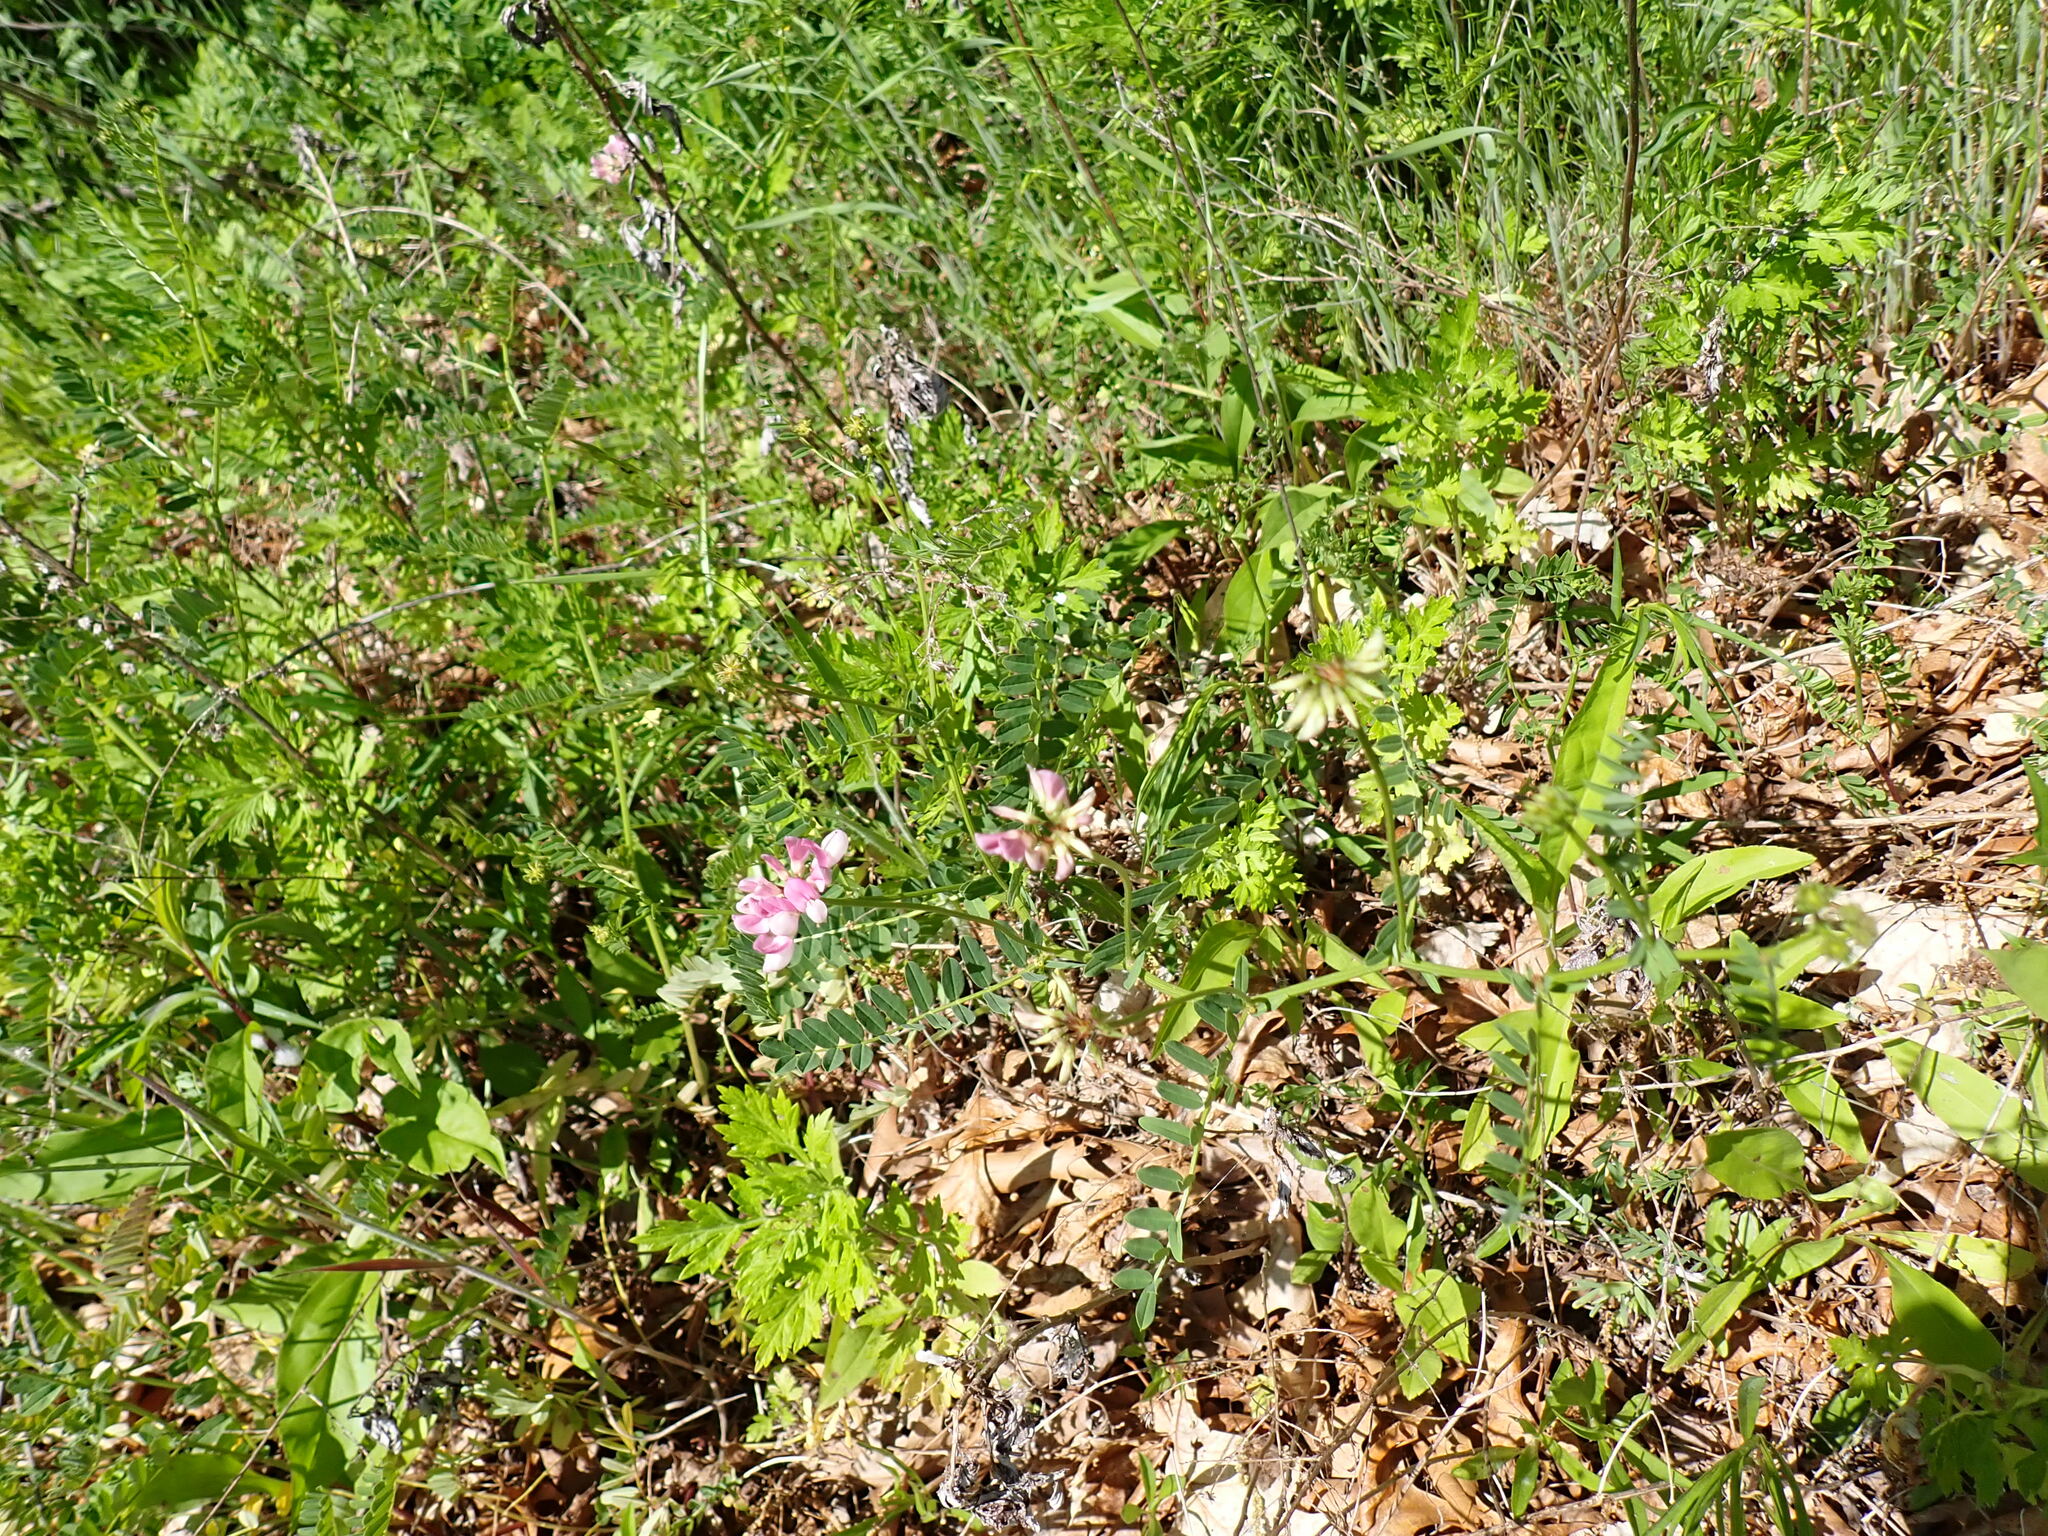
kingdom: Plantae
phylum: Tracheophyta
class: Magnoliopsida
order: Fabales
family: Fabaceae
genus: Coronilla
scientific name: Coronilla varia
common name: Crownvetch
